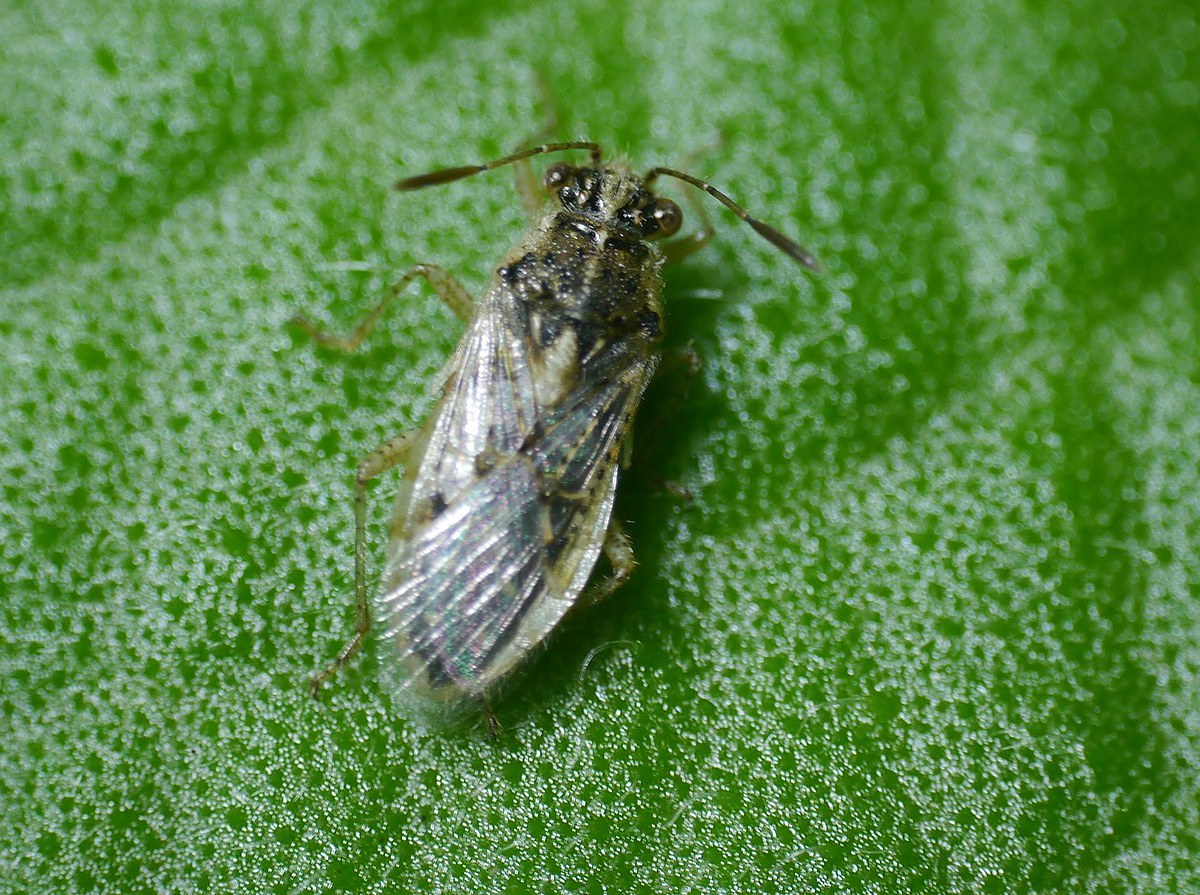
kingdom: Animalia
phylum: Arthropoda
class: Insecta
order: Hemiptera
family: Rhopalidae
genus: Brachycarenus
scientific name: Brachycarenus tigrinus
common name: Scentless plant bug
